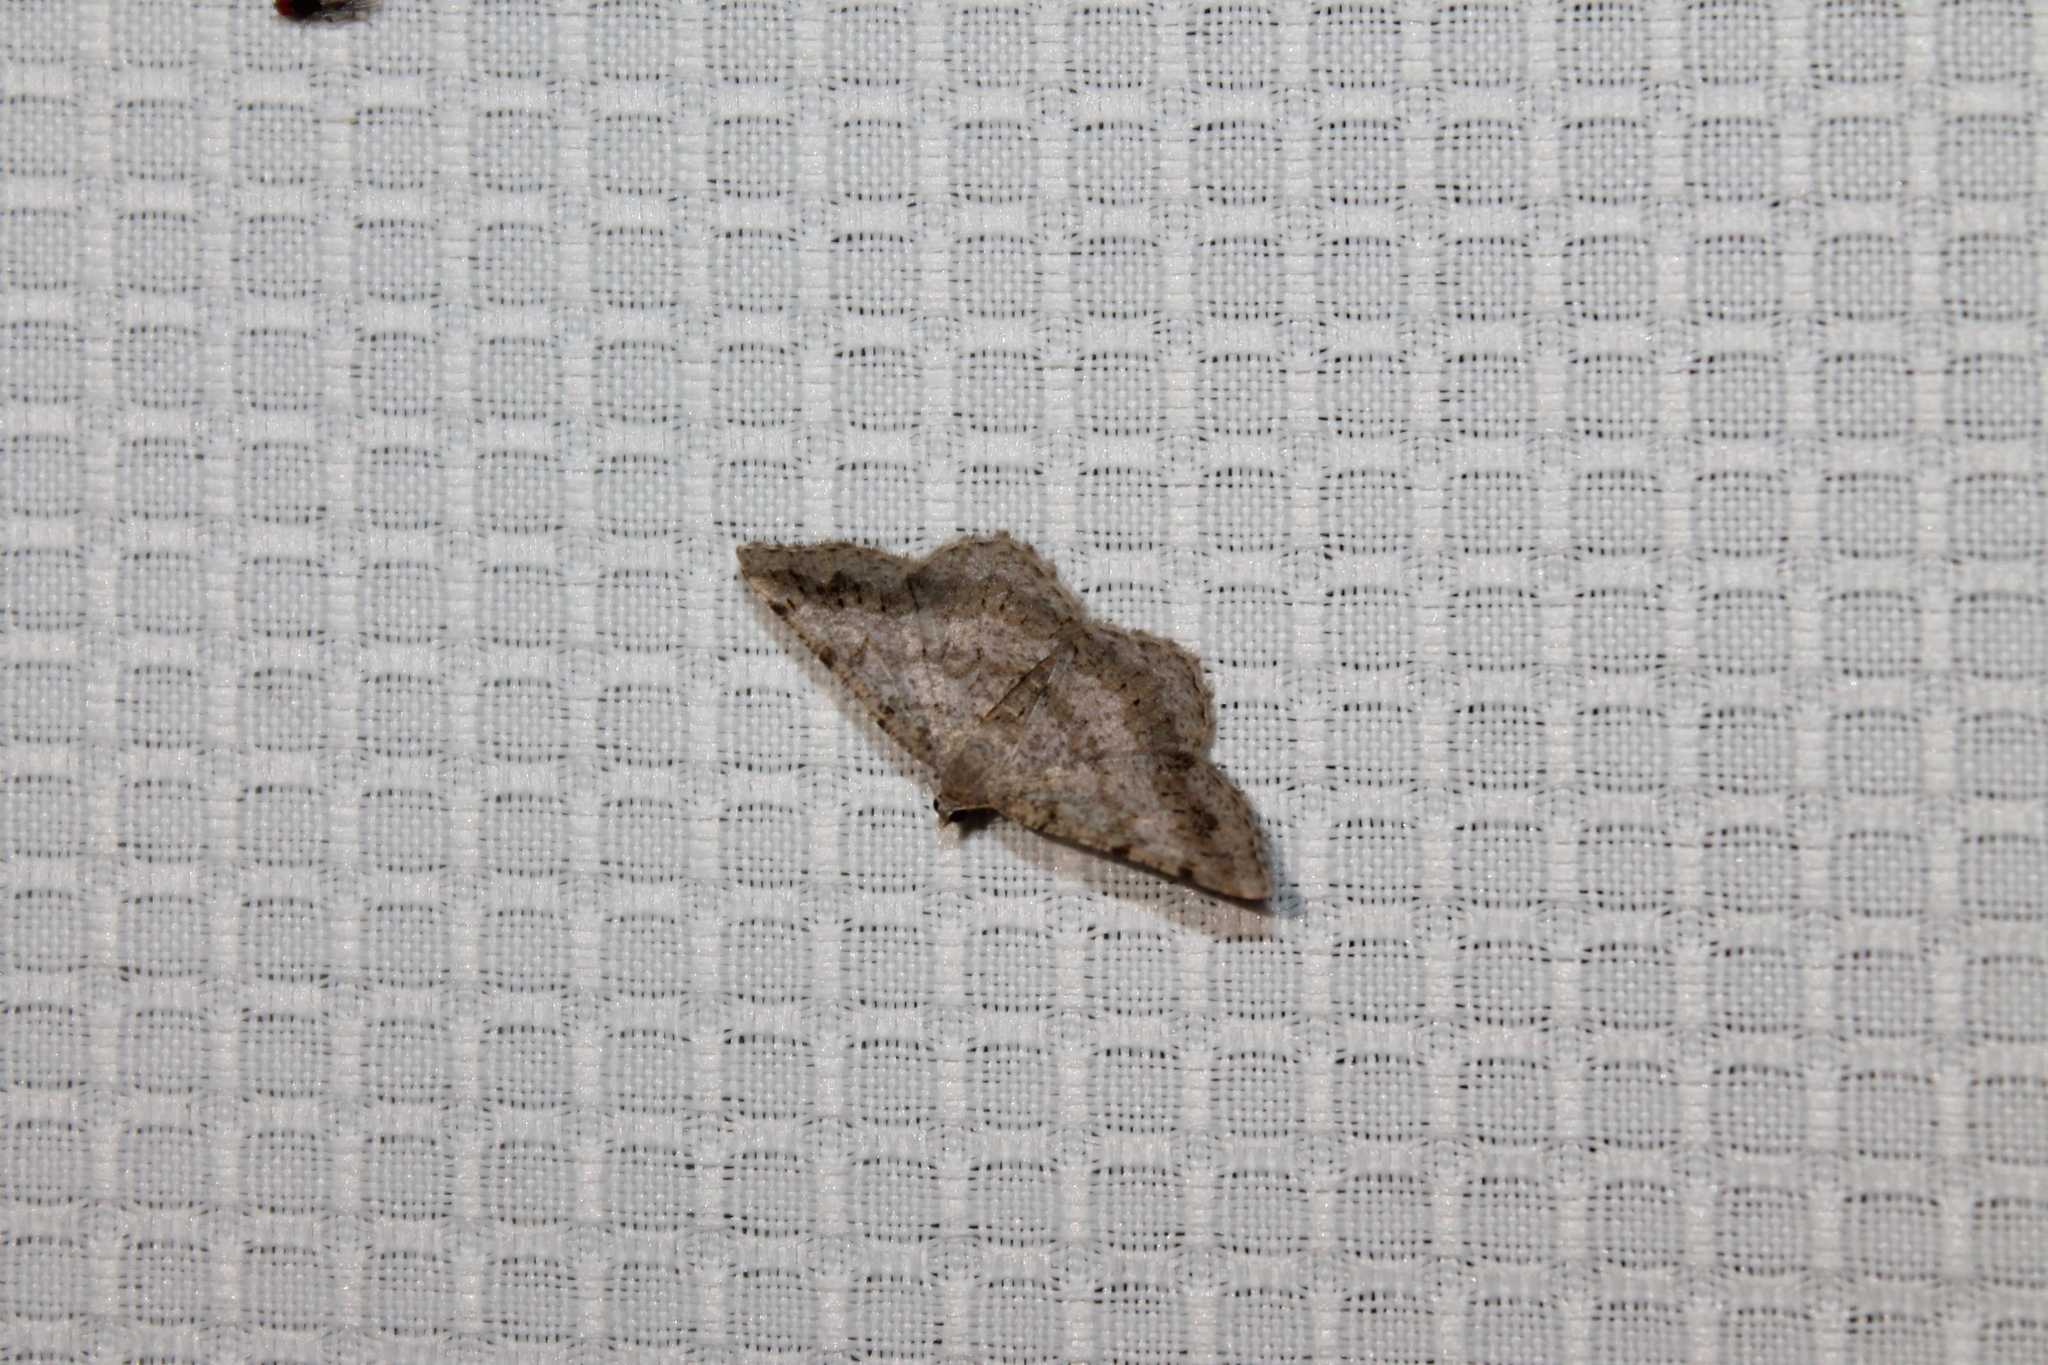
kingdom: Animalia
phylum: Arthropoda
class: Insecta
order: Lepidoptera
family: Geometridae
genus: Digrammia
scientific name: Digrammia ocellinata
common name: Faint-spotted angle
